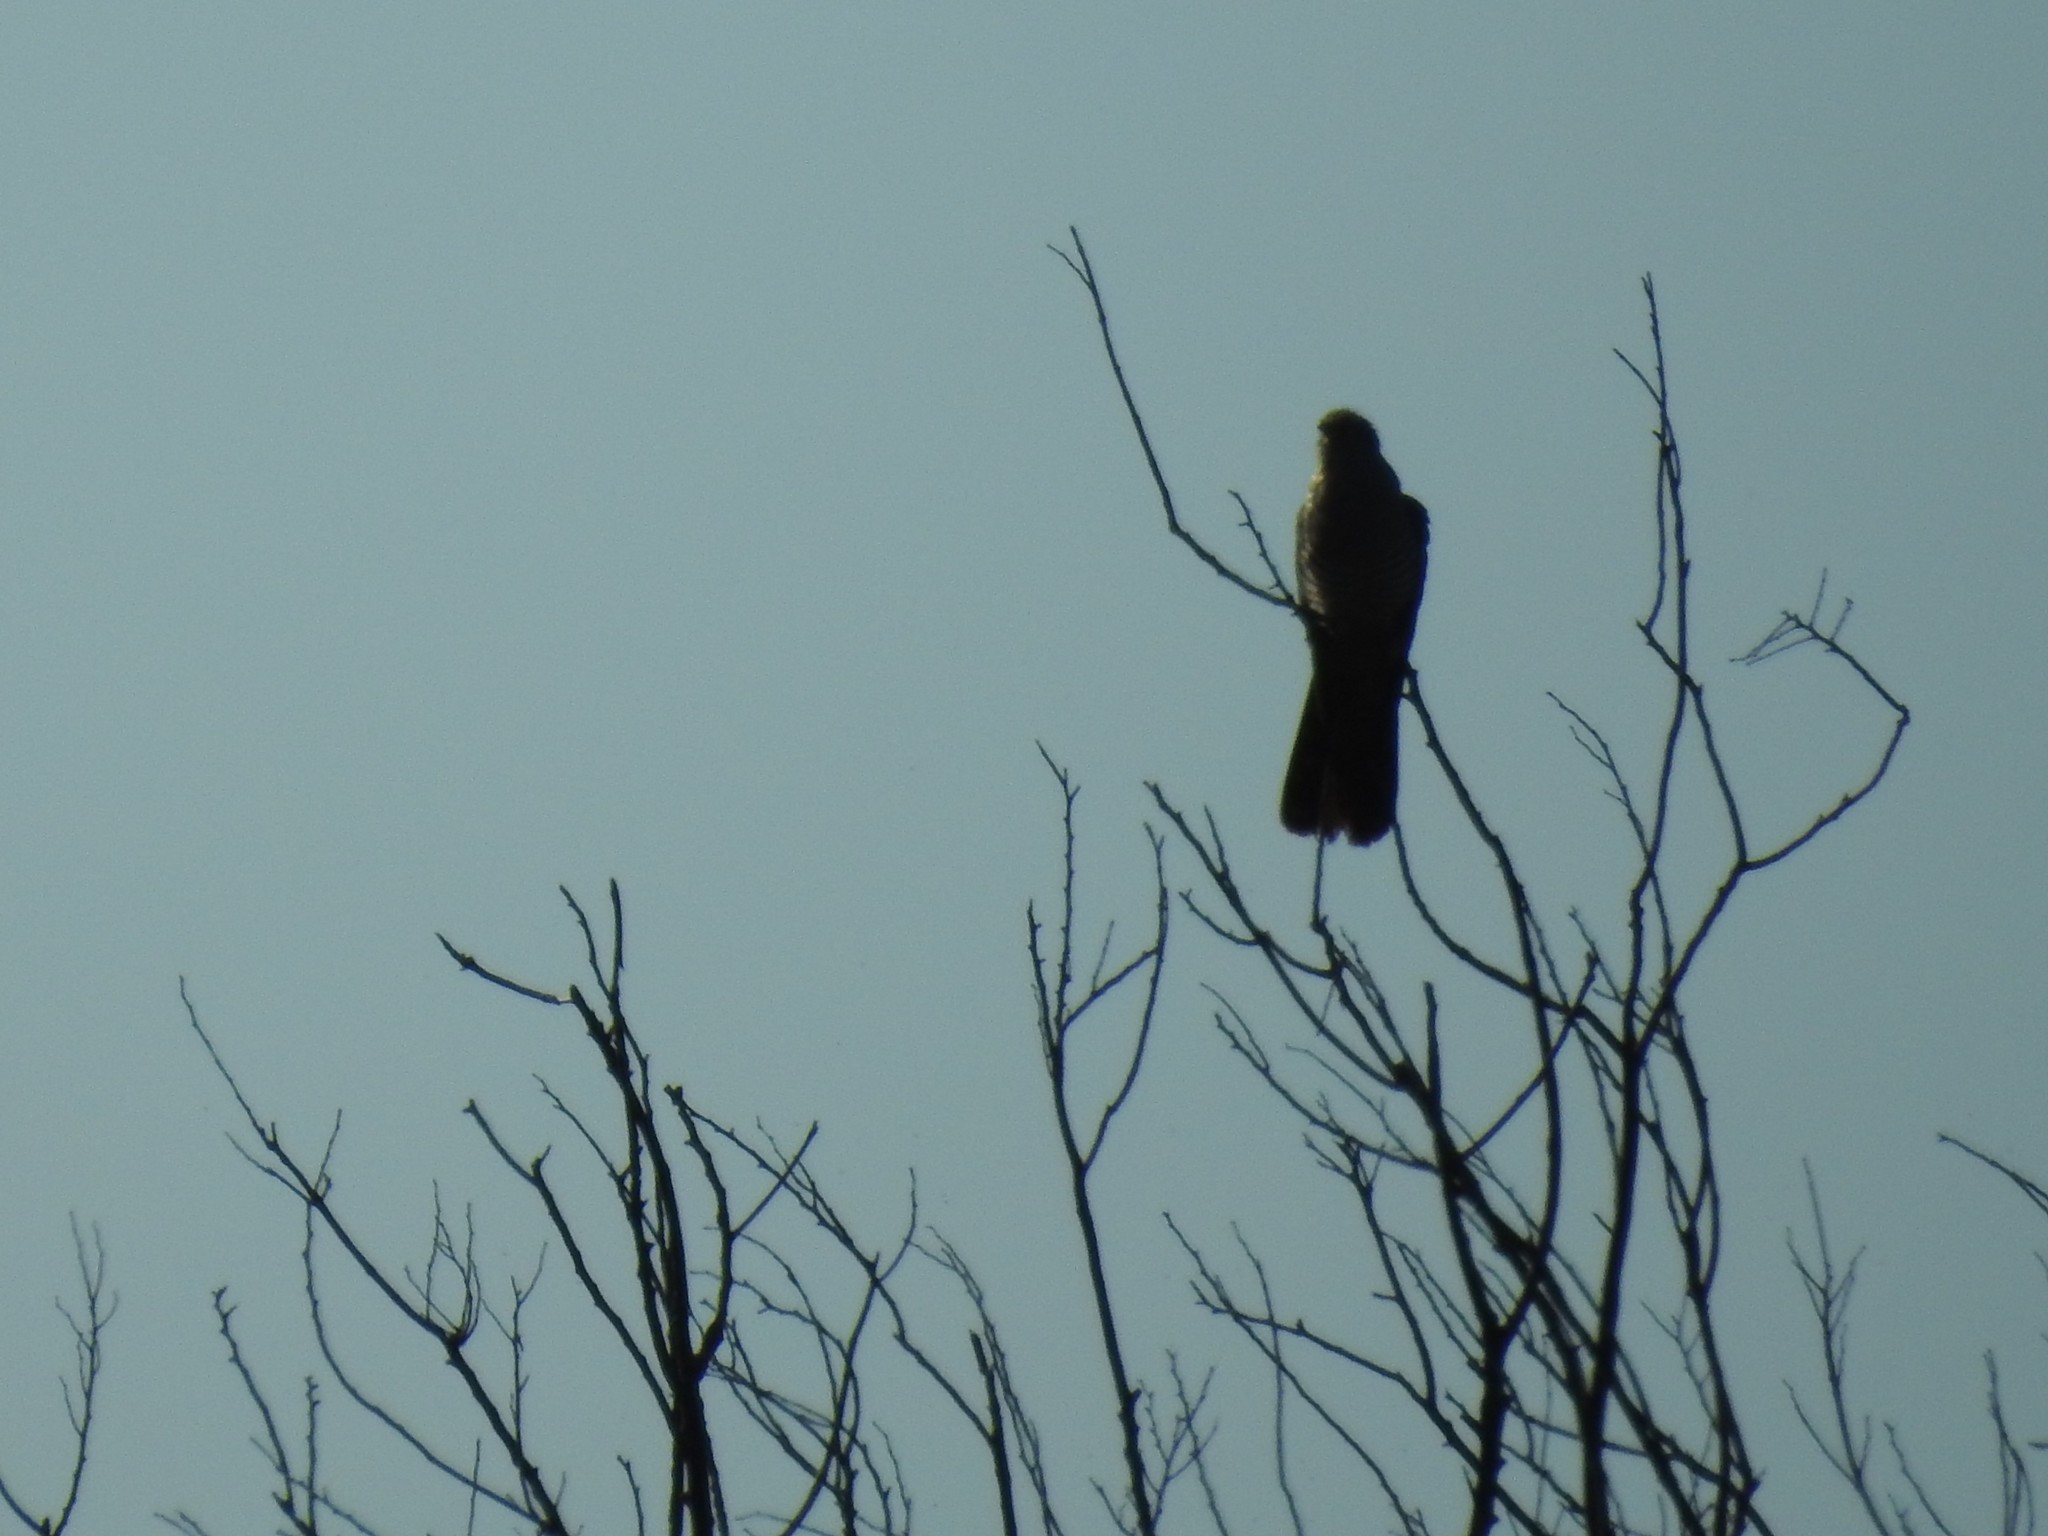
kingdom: Animalia
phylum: Chordata
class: Aves
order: Cuculiformes
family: Cuculidae
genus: Cuculus
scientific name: Cuculus canorus
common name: Common cuckoo
